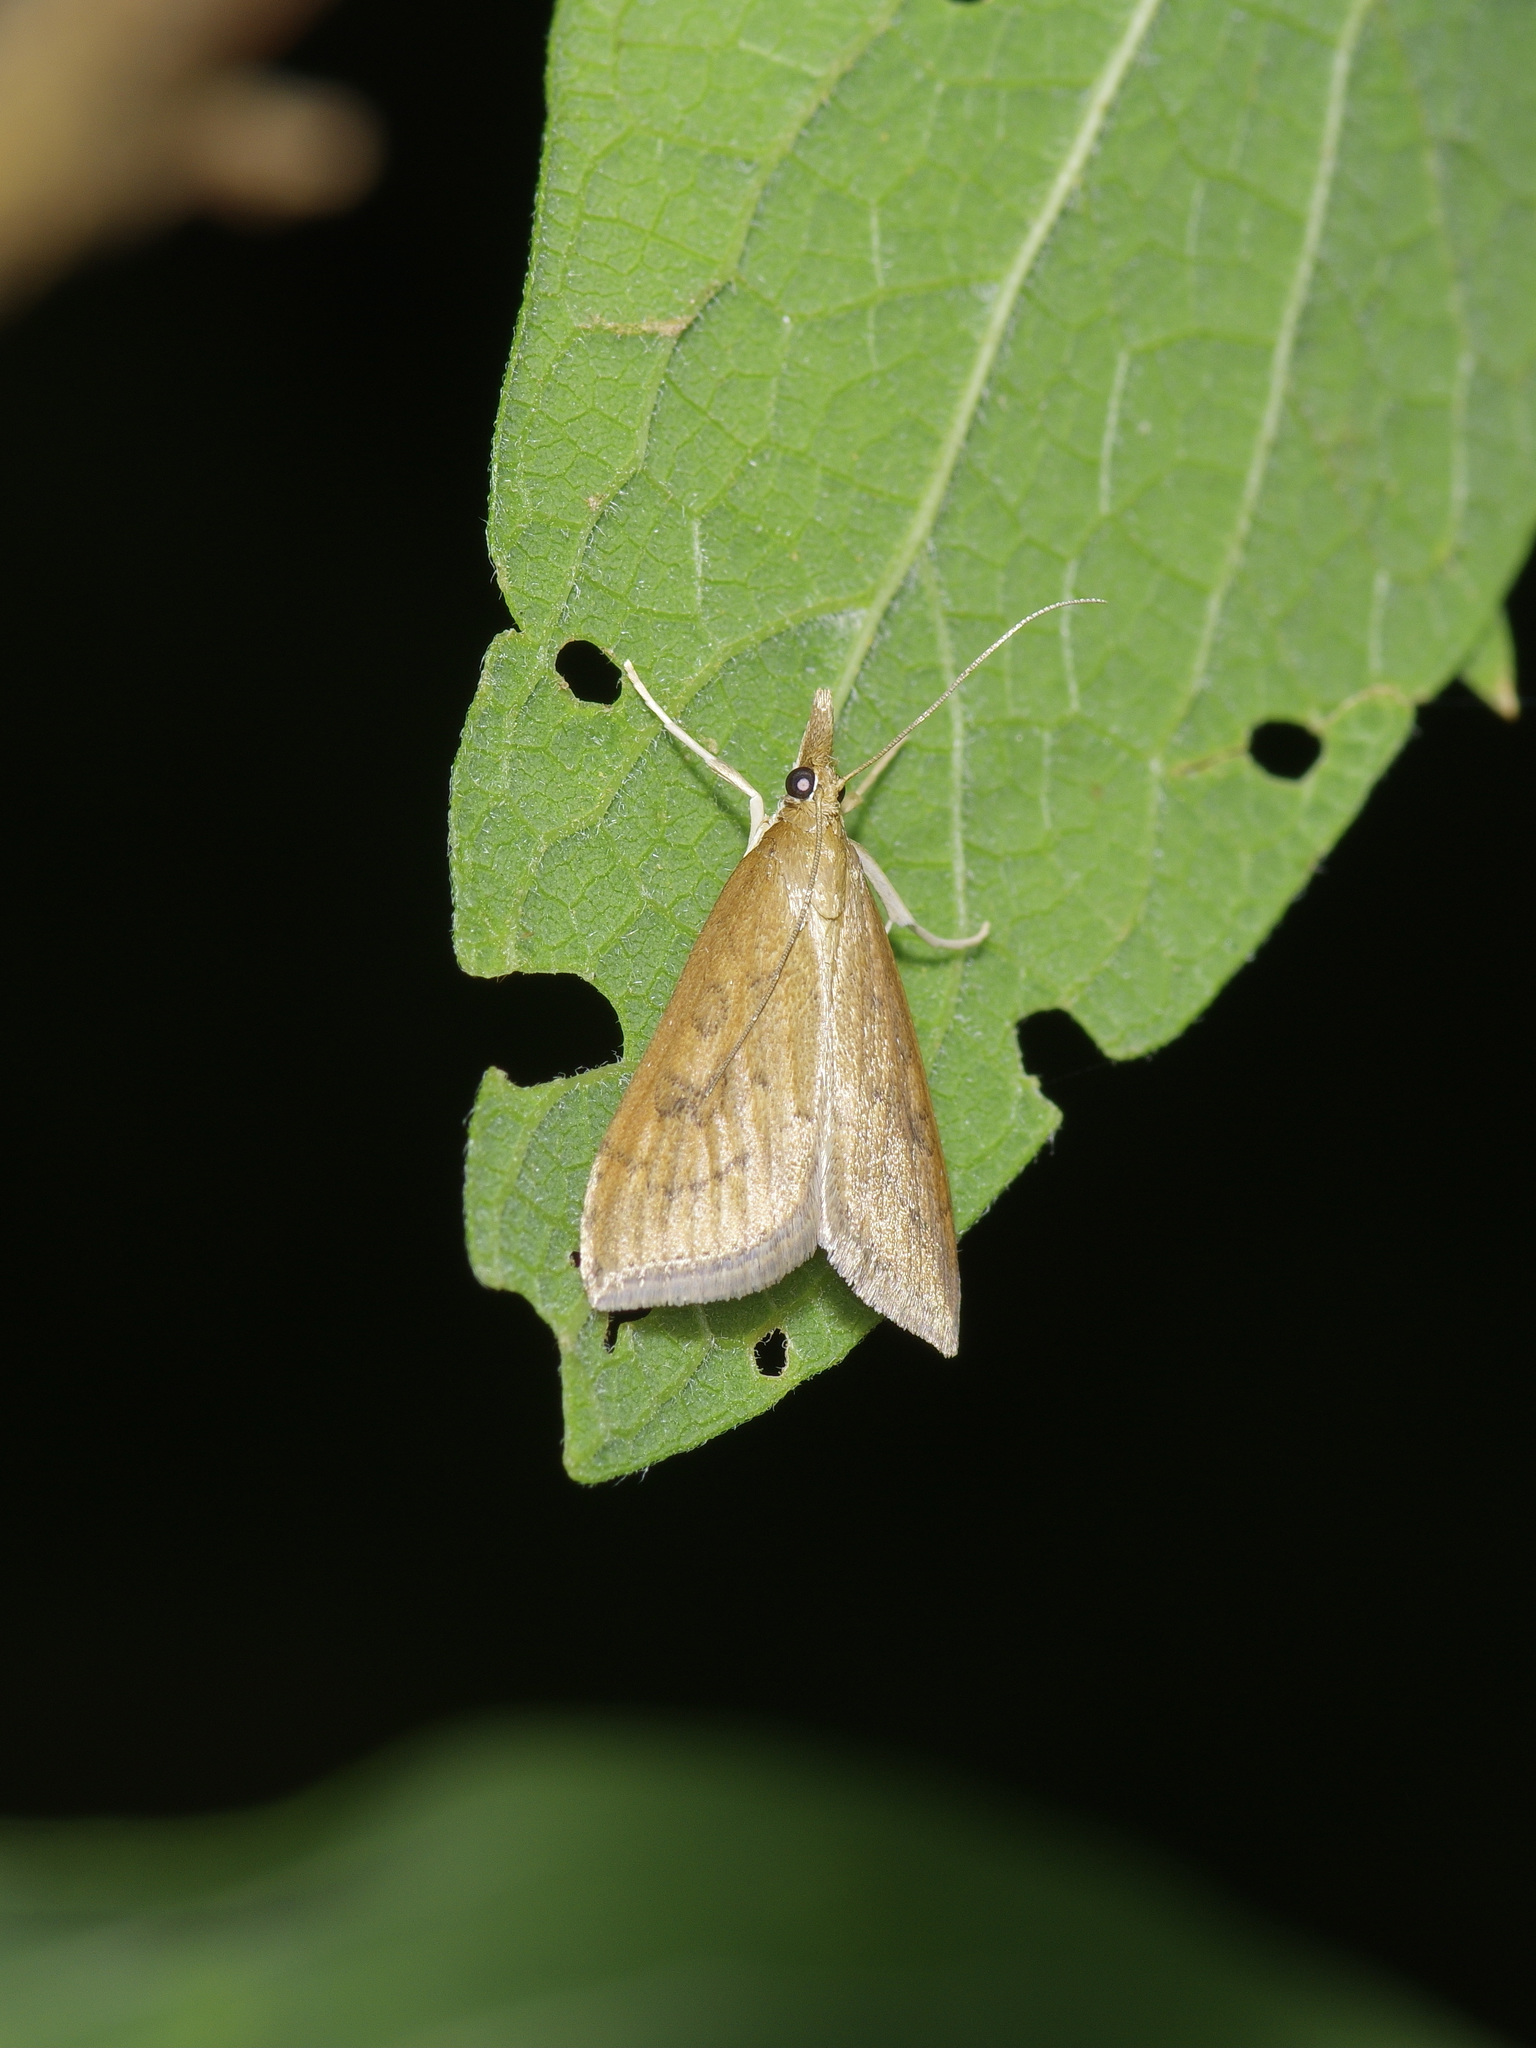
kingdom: Animalia
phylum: Arthropoda
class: Insecta
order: Lepidoptera
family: Crambidae
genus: Udea
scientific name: Udea rubigalis
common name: Celery leaftier moth
